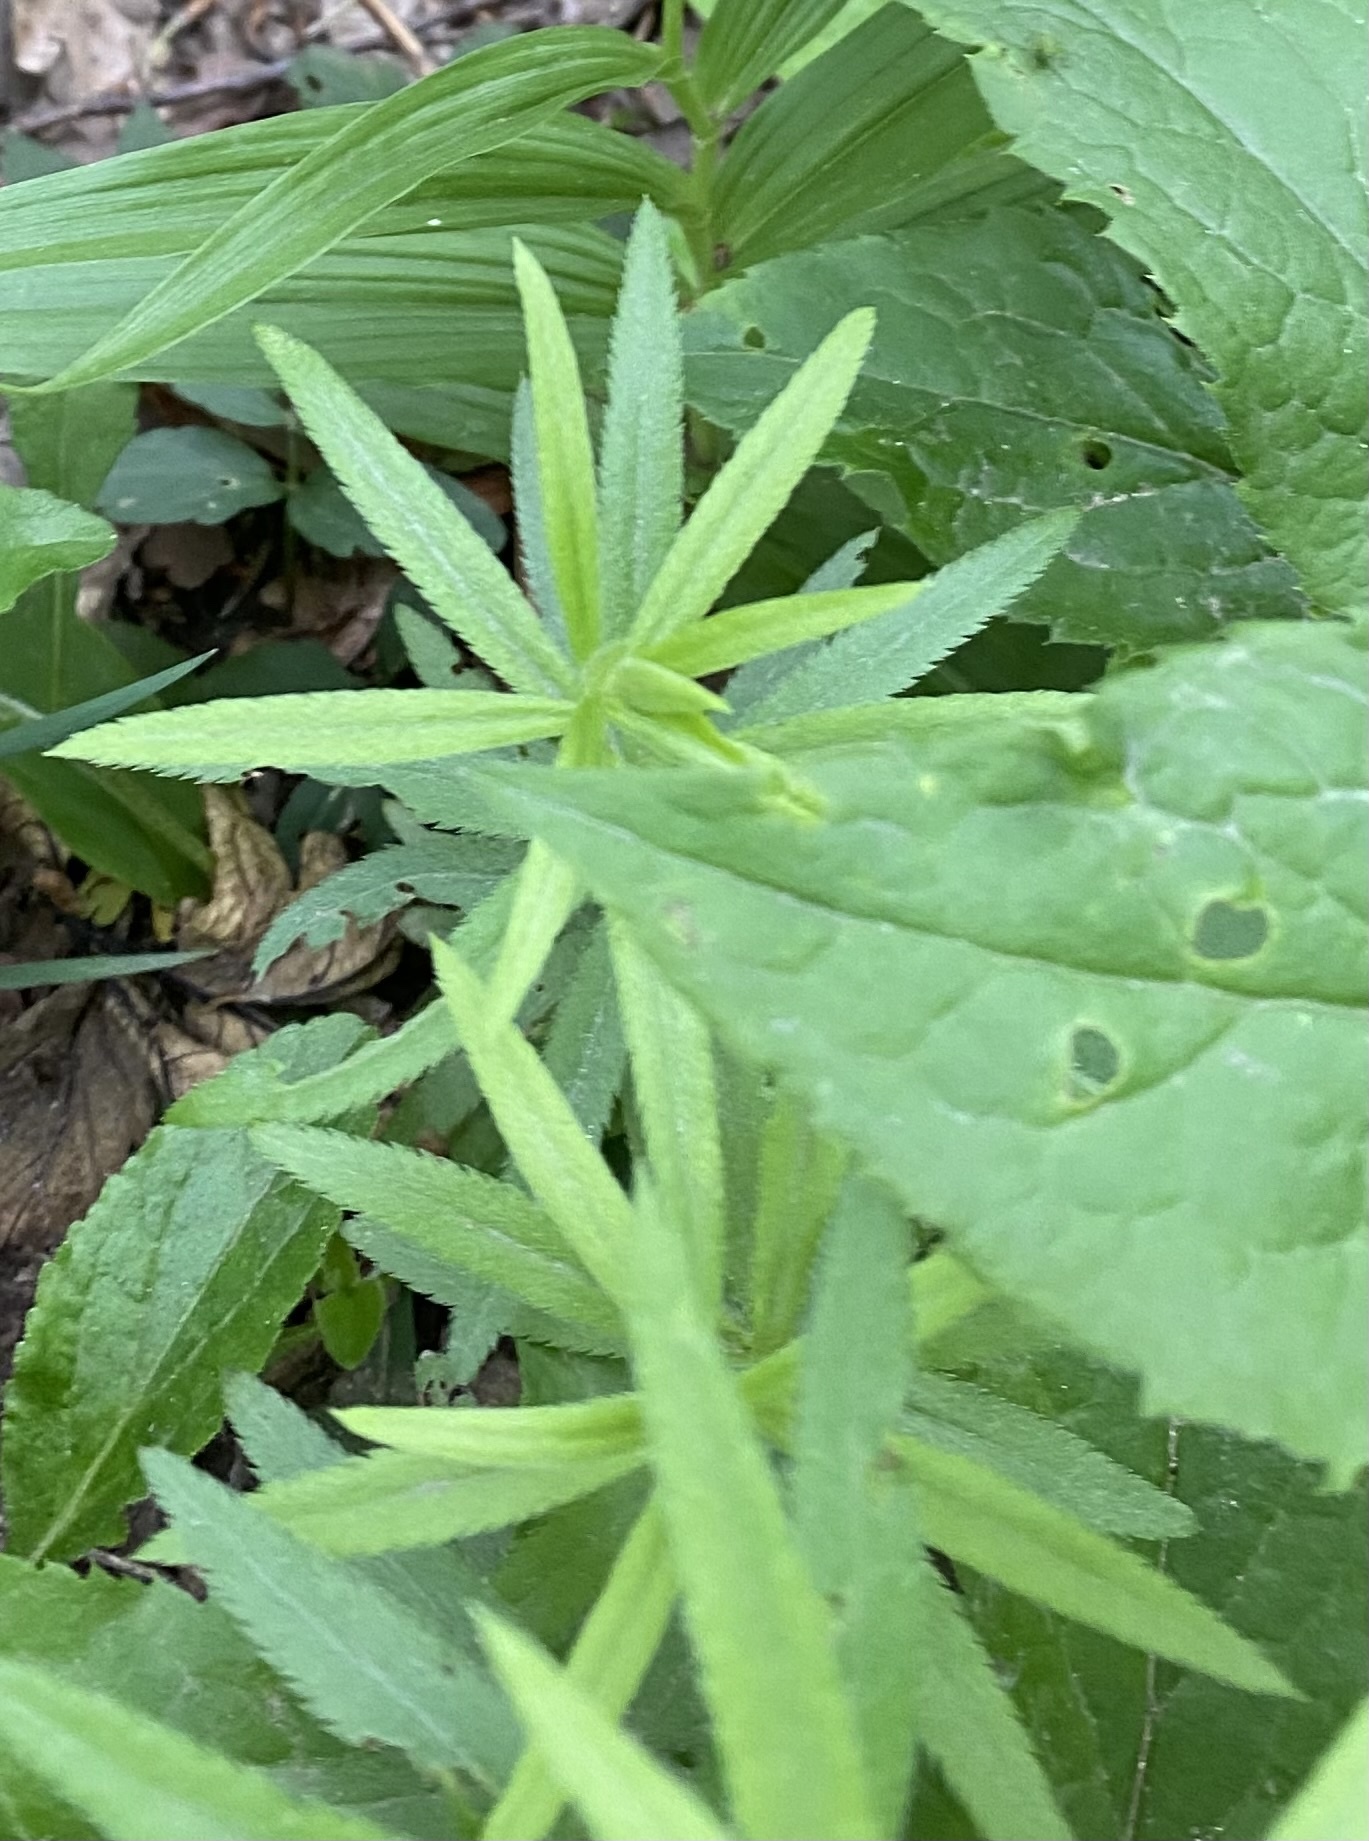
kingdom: Plantae
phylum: Tracheophyta
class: Magnoliopsida
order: Asterales
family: Asteraceae
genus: Achillea
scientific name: Achillea biserrata
